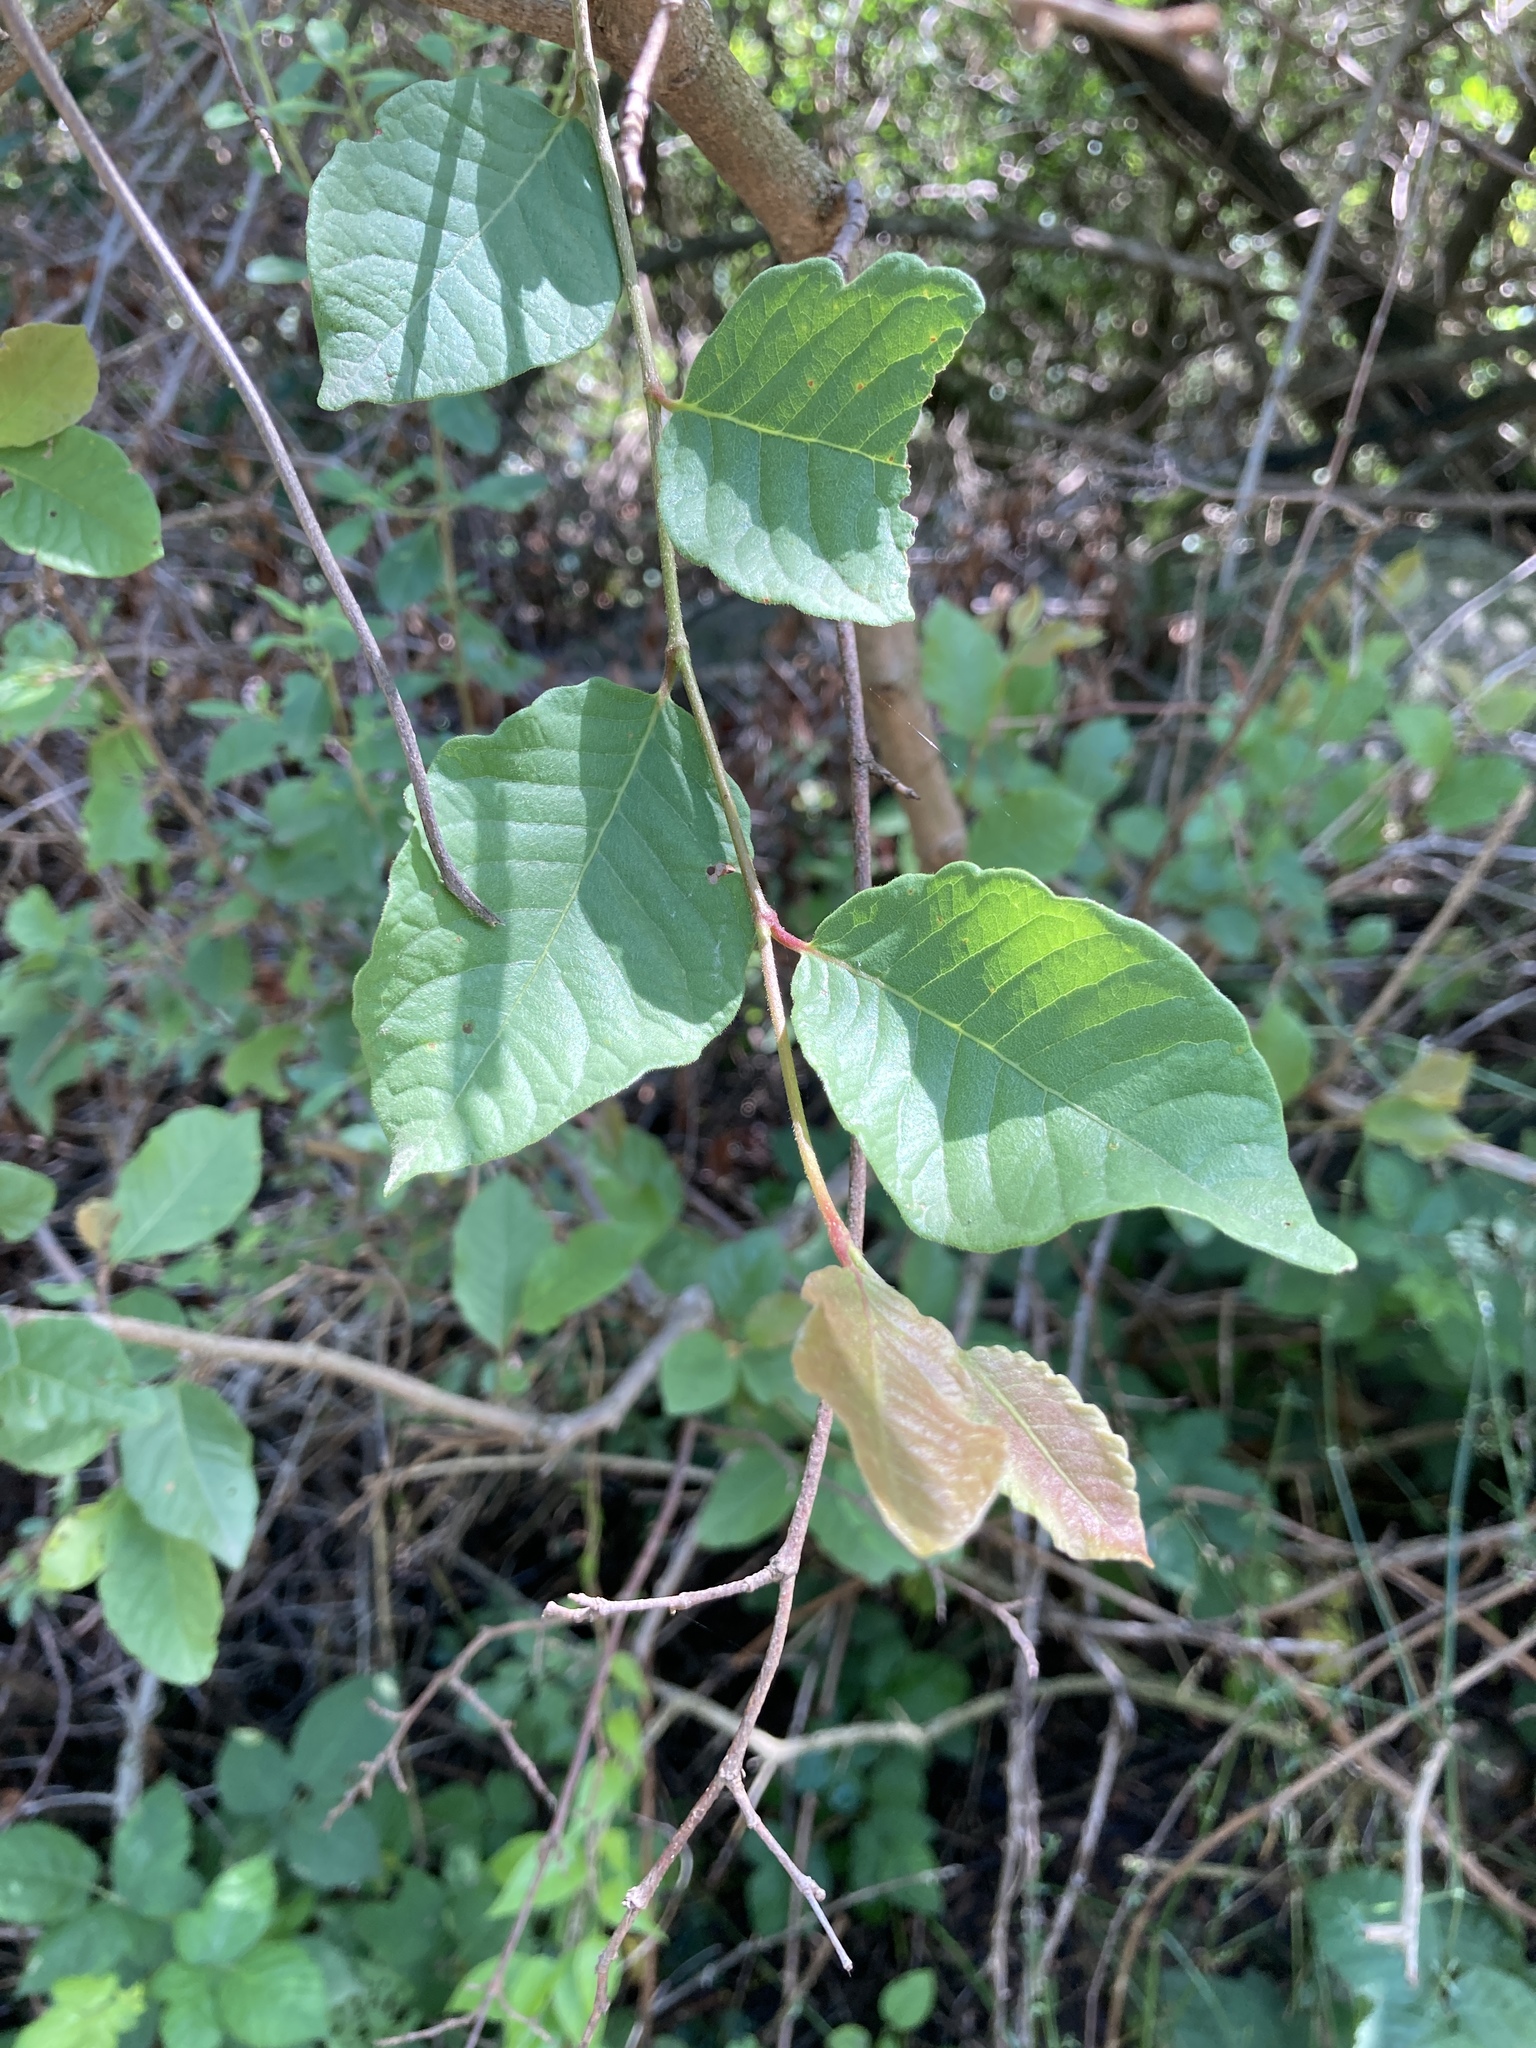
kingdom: Plantae
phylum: Tracheophyta
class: Magnoliopsida
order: Caryophyllales
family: Polygonaceae
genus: Ruprechtia
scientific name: Ruprechtia apetala
